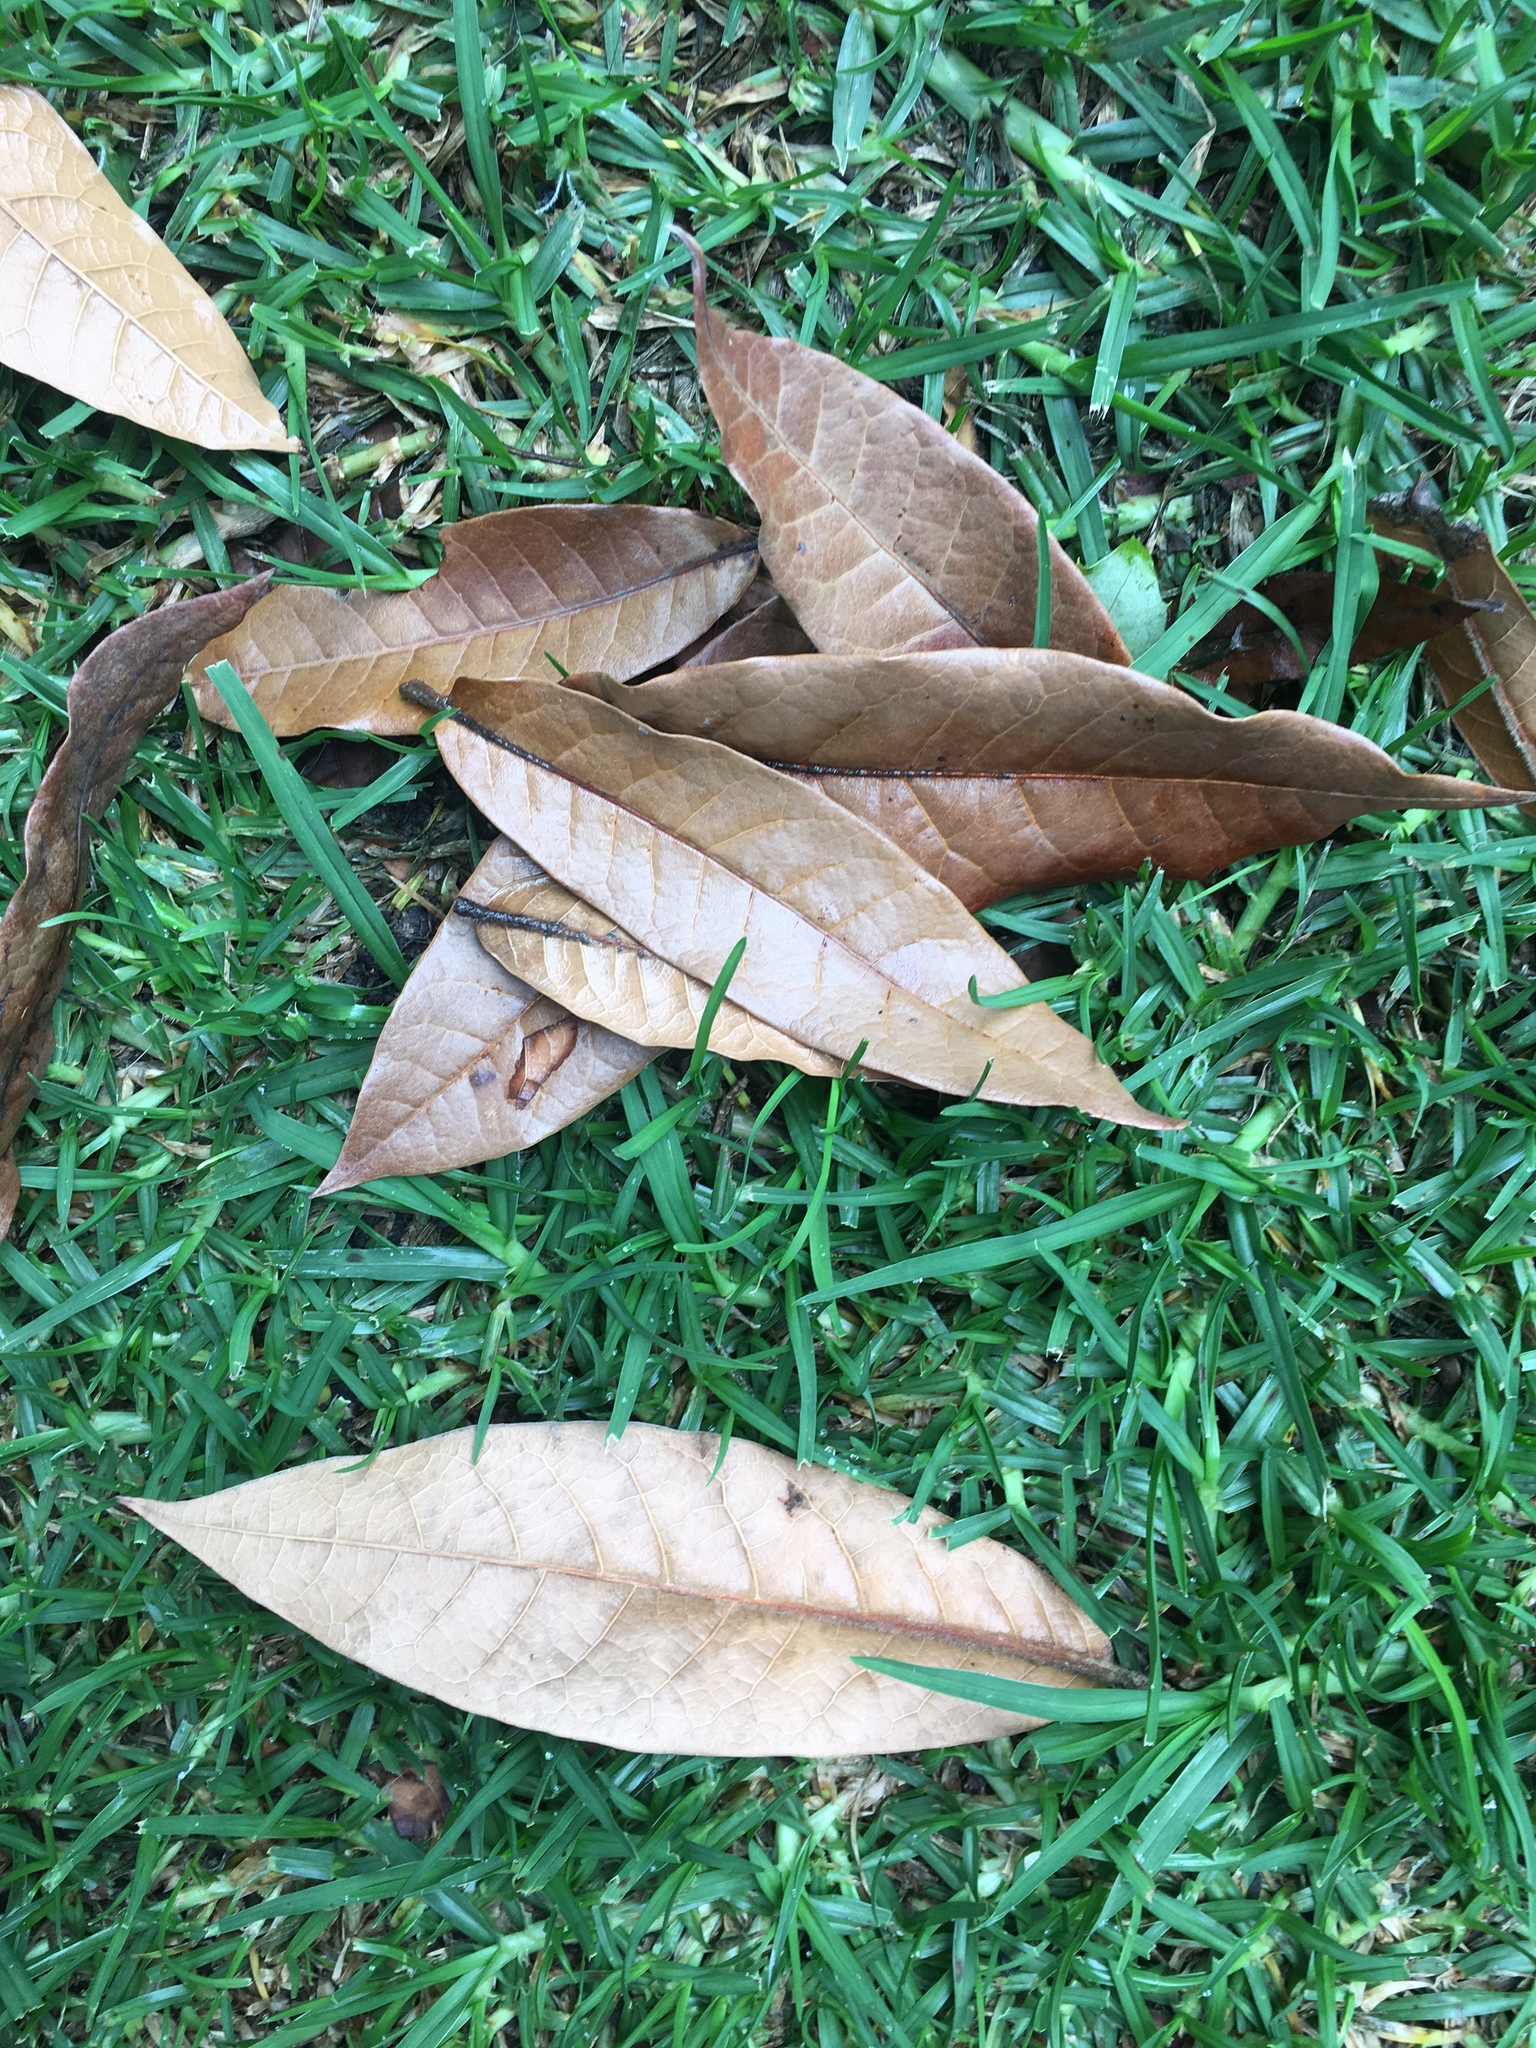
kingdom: Plantae
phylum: Tracheophyta
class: Magnoliopsida
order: Fagales
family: Fagaceae
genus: Quercus
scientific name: Quercus humboldtii
